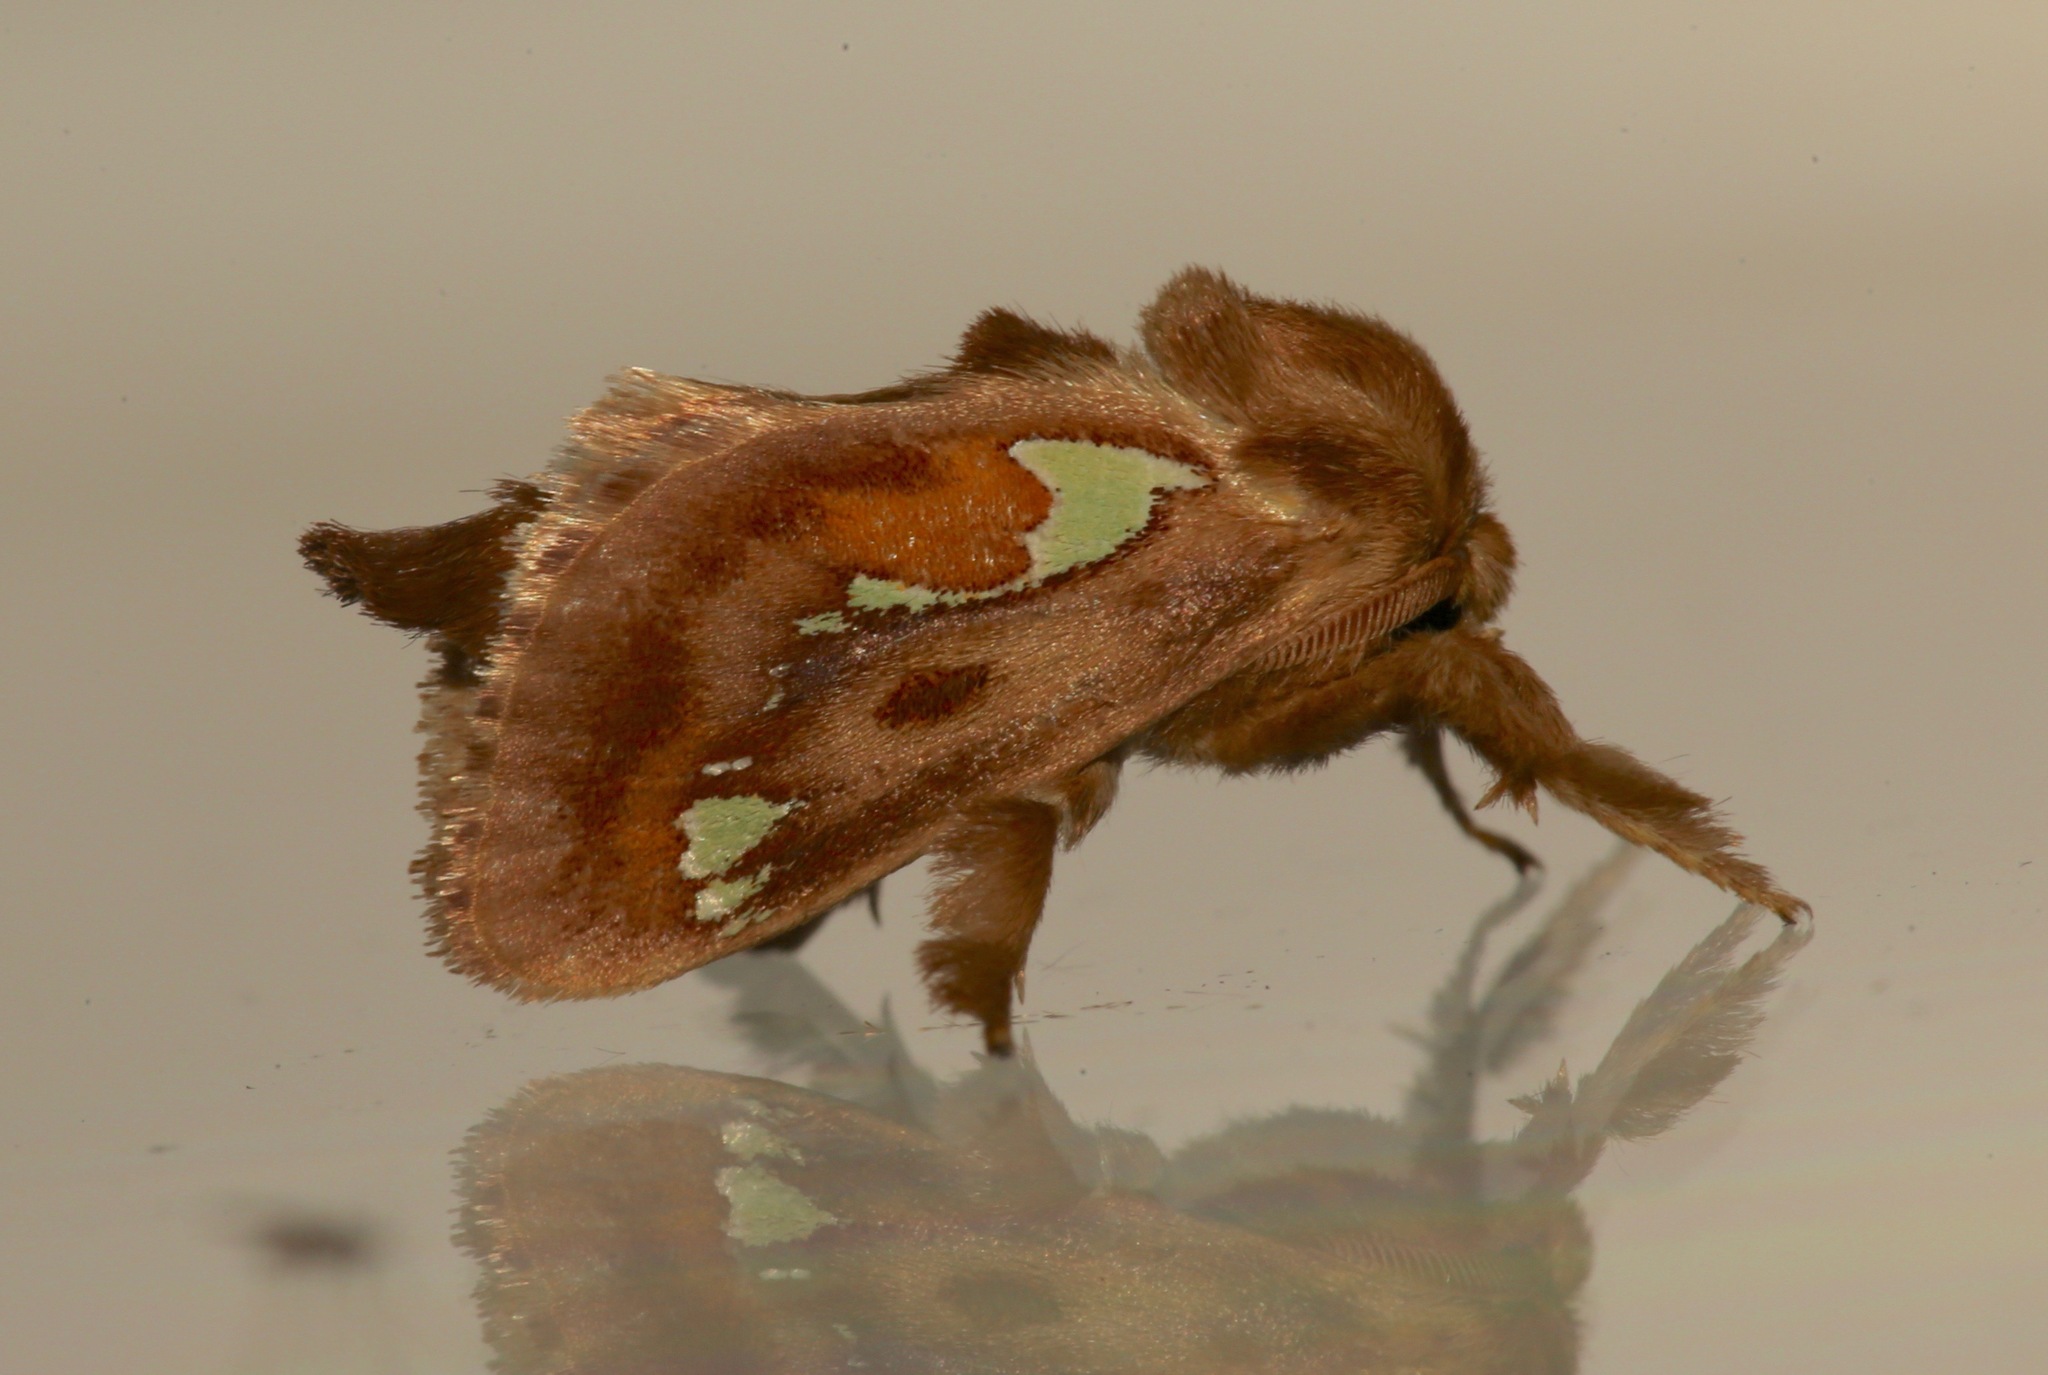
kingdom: Animalia
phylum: Arthropoda
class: Insecta
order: Lepidoptera
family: Limacodidae
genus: Euclea
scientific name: Euclea delphinii
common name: Spiny oak-slug moth
